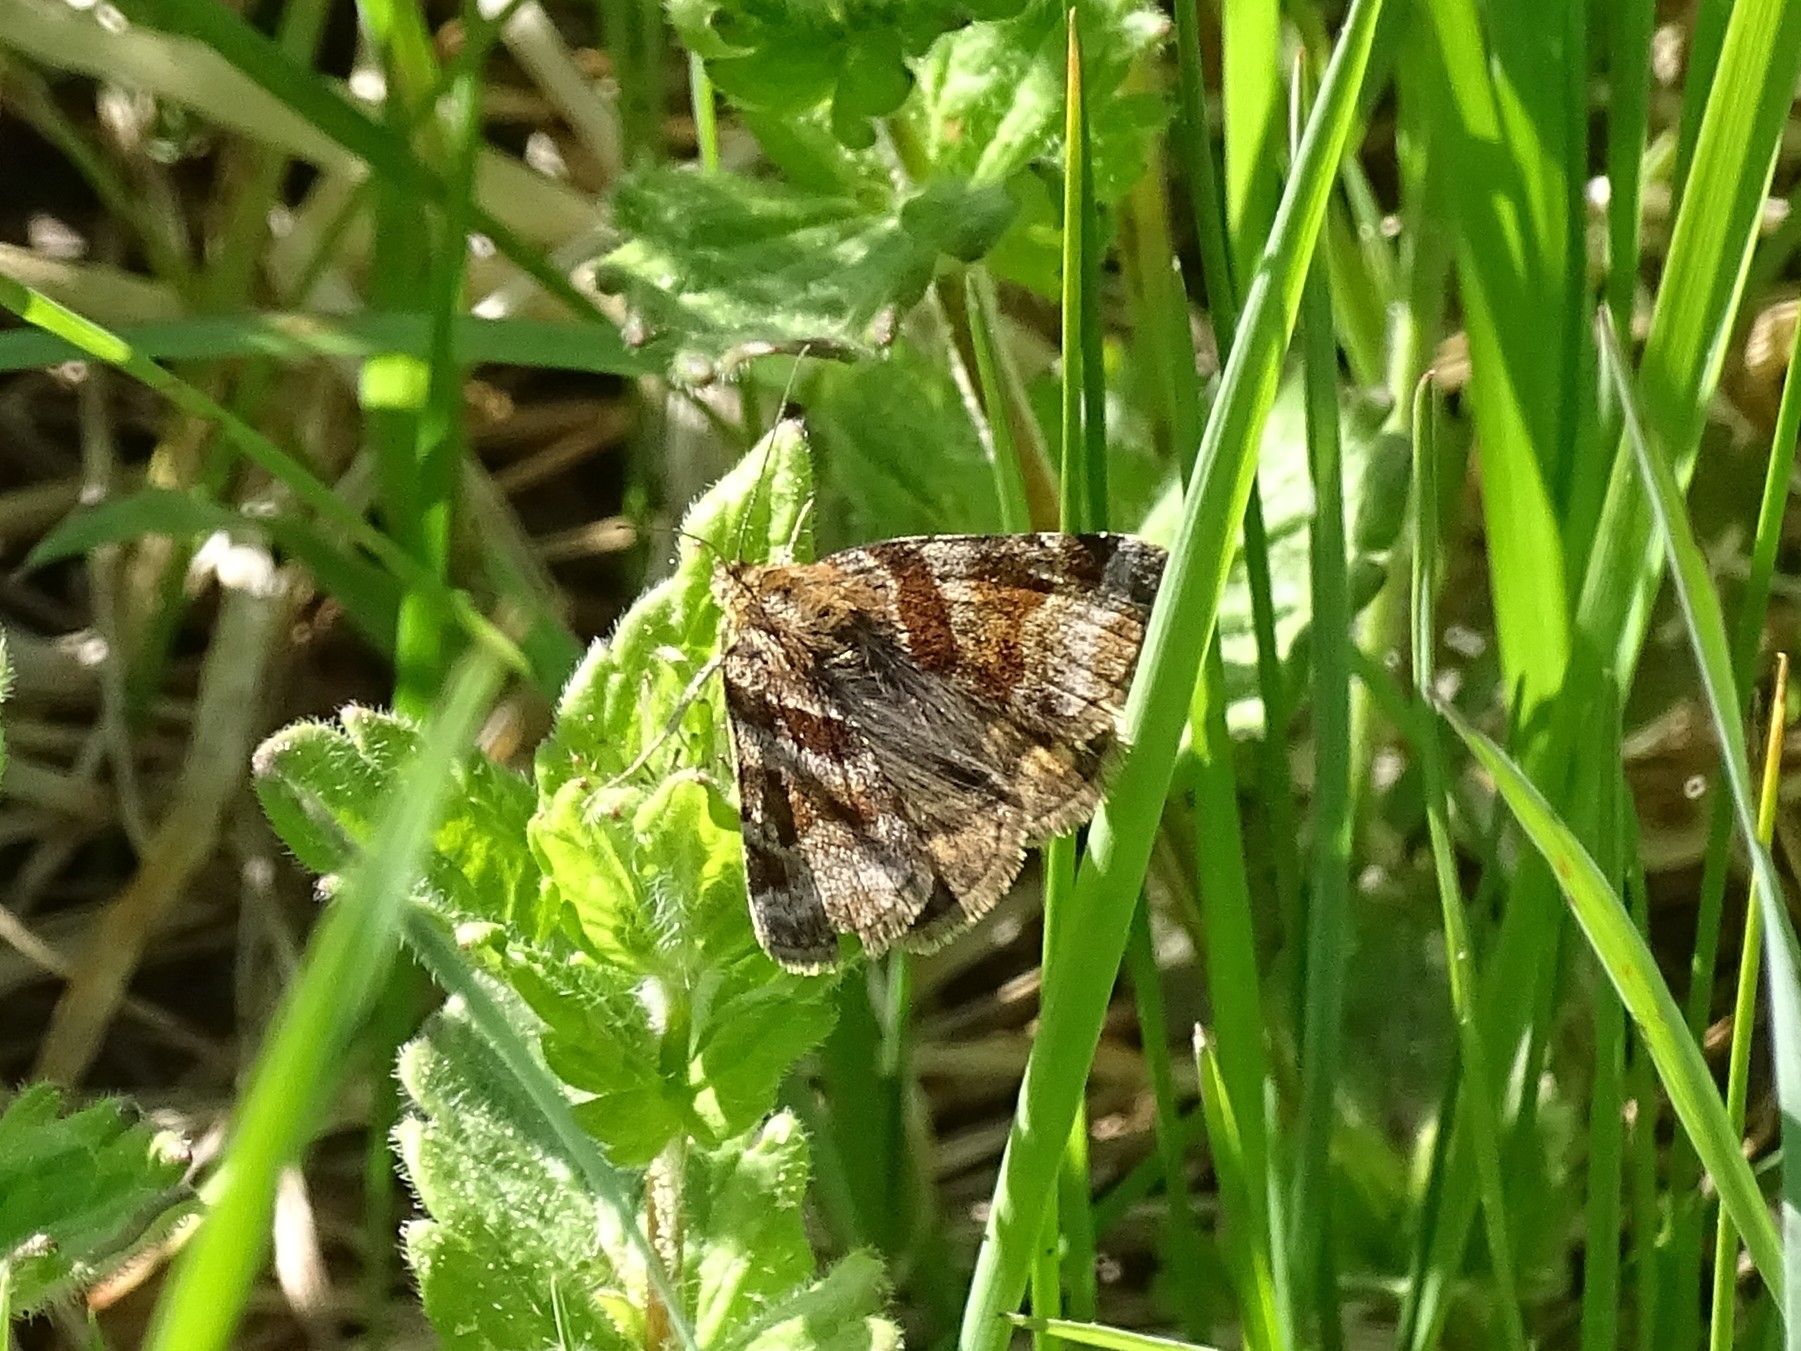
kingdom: Animalia
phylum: Arthropoda
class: Insecta
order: Lepidoptera
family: Erebidae
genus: Euclidia
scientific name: Euclidia glyphica
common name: Burnet companion
